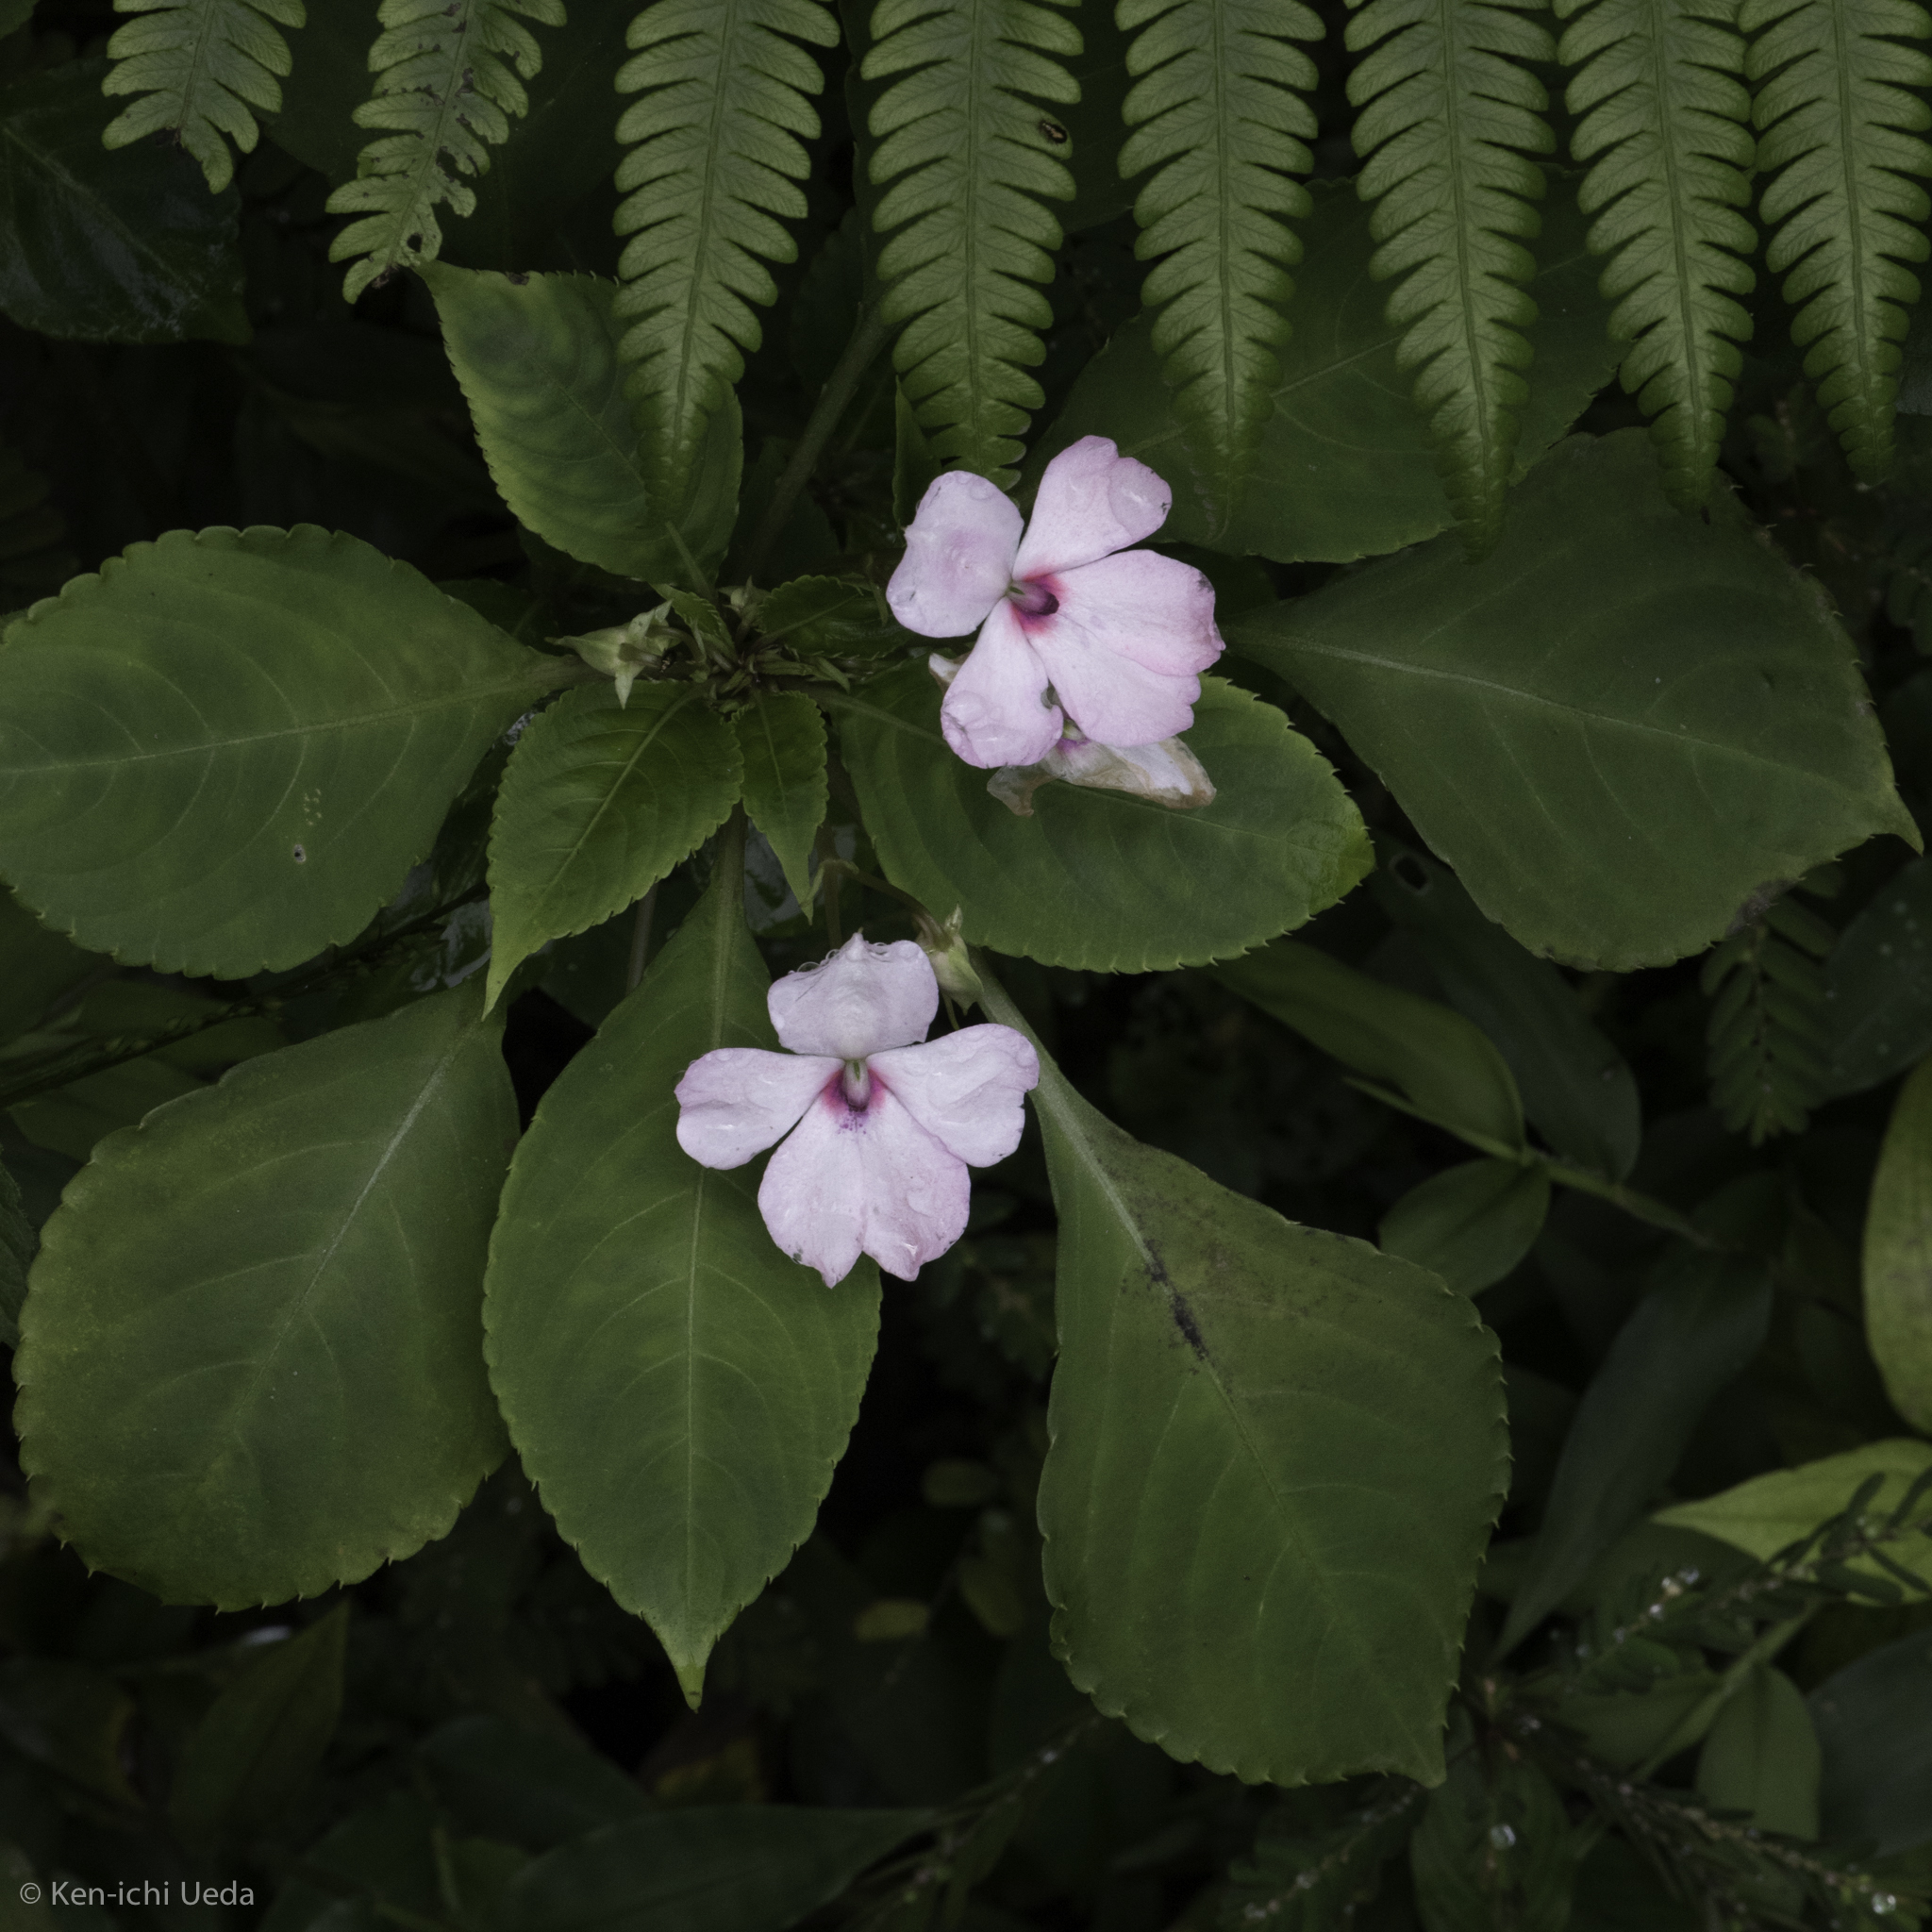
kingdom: Plantae
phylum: Tracheophyta
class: Magnoliopsida
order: Ericales
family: Balsaminaceae
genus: Impatiens
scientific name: Impatiens walleriana
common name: Buzzy lizzy
